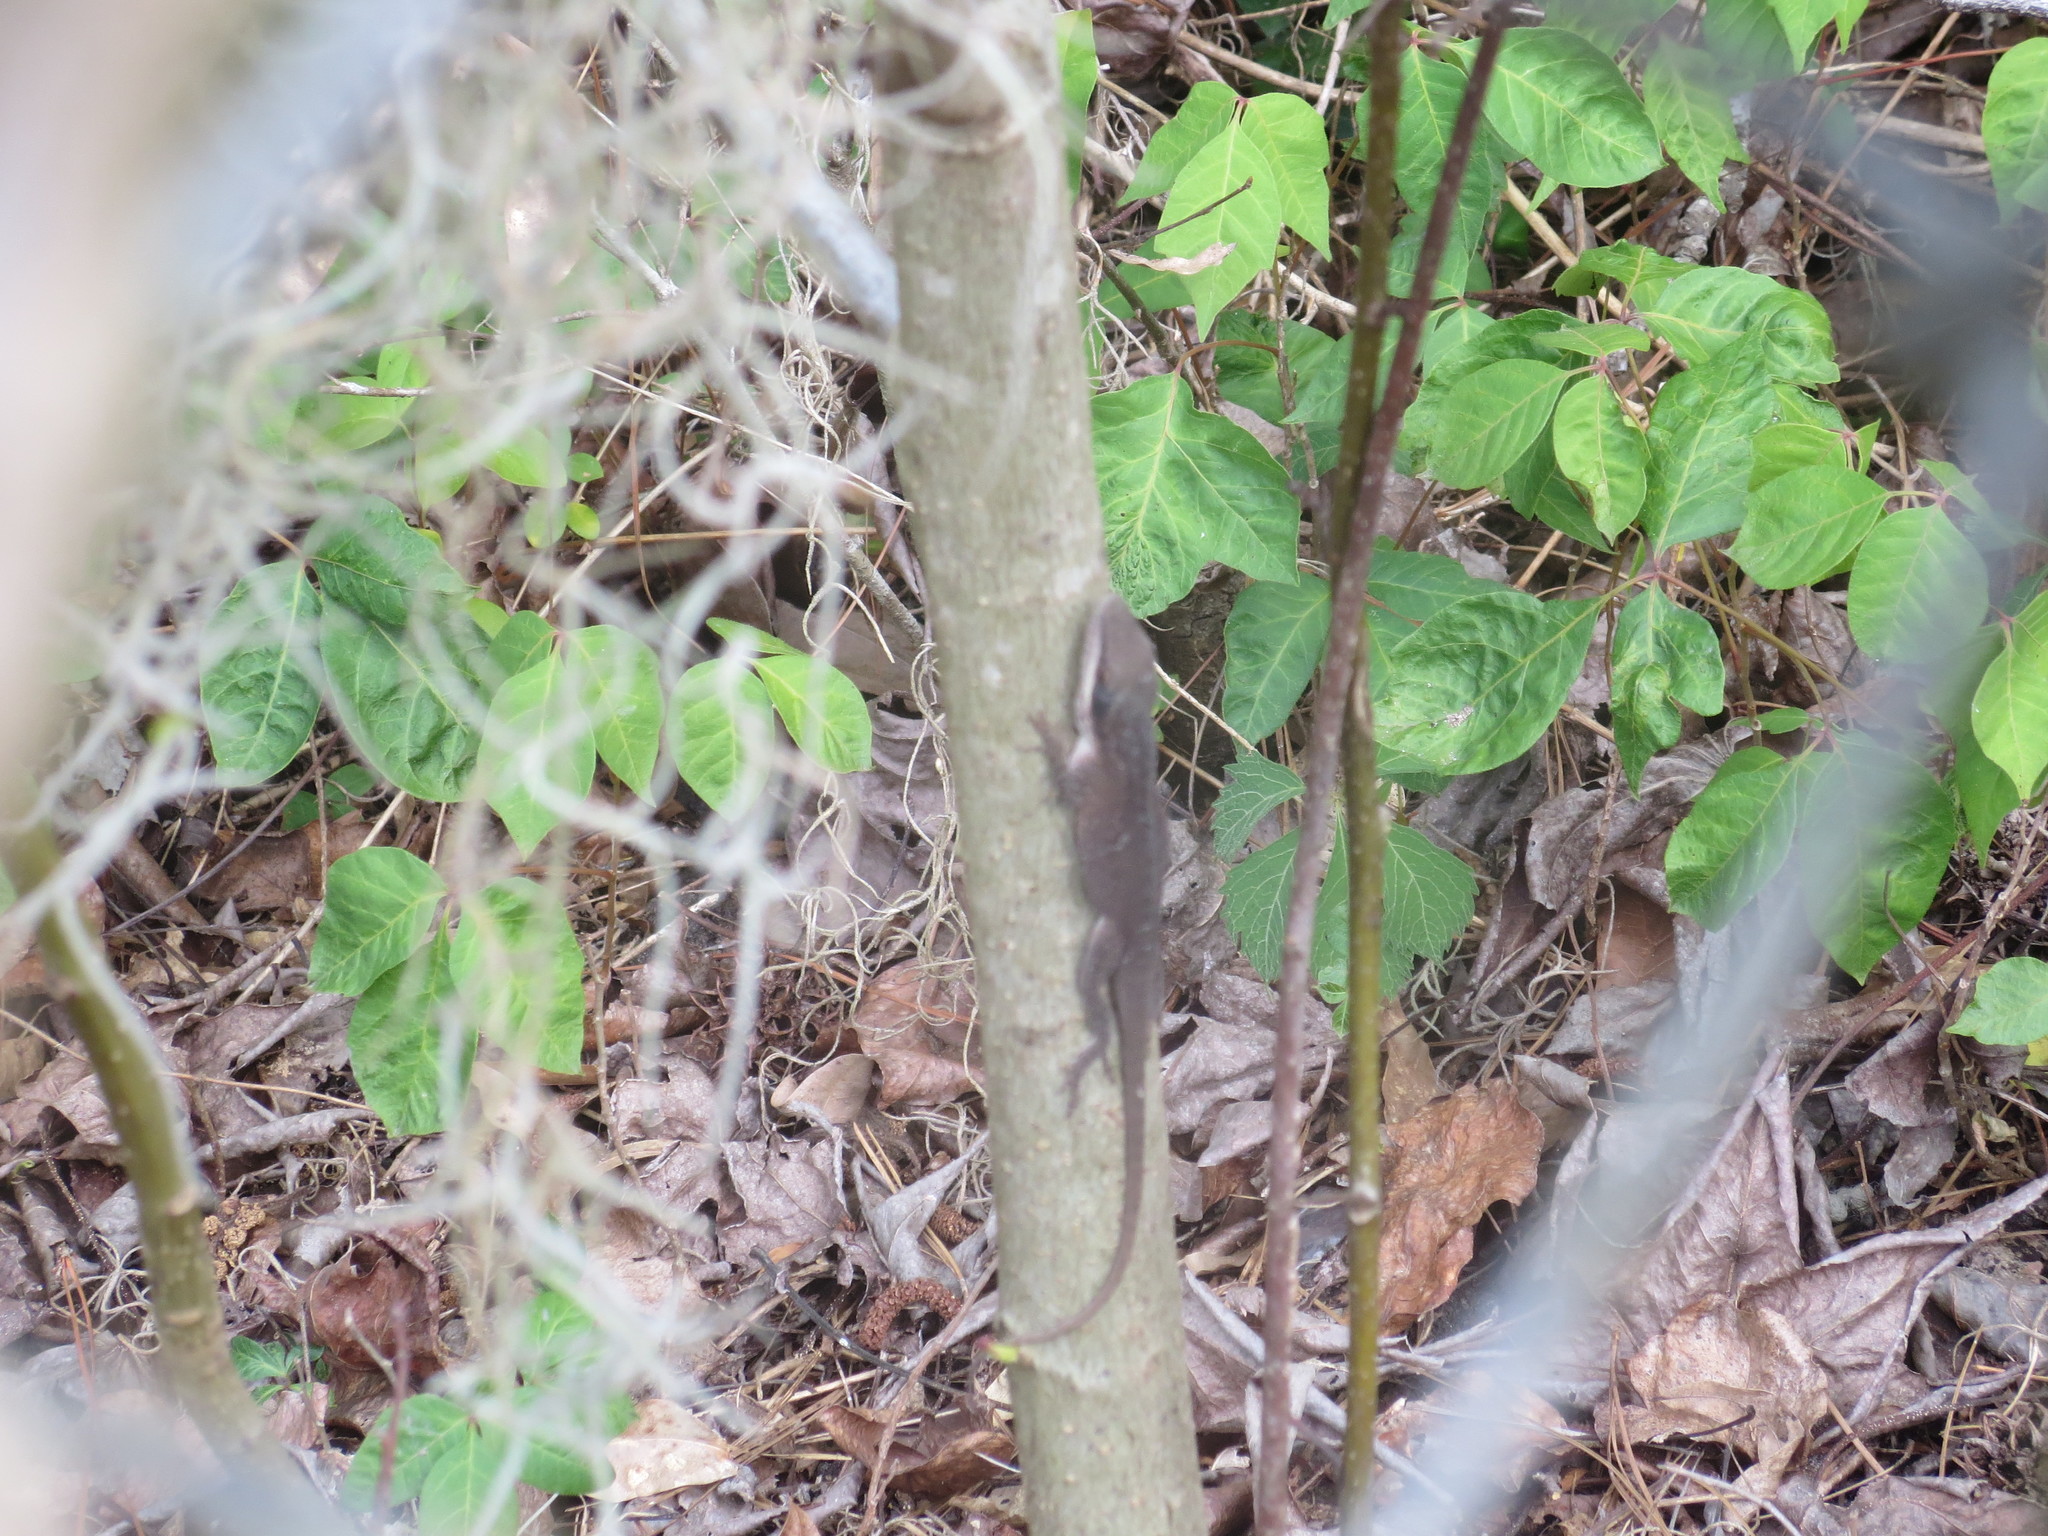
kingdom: Animalia
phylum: Chordata
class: Squamata
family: Dactyloidae
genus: Anolis
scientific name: Anolis carolinensis
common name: Green anole
